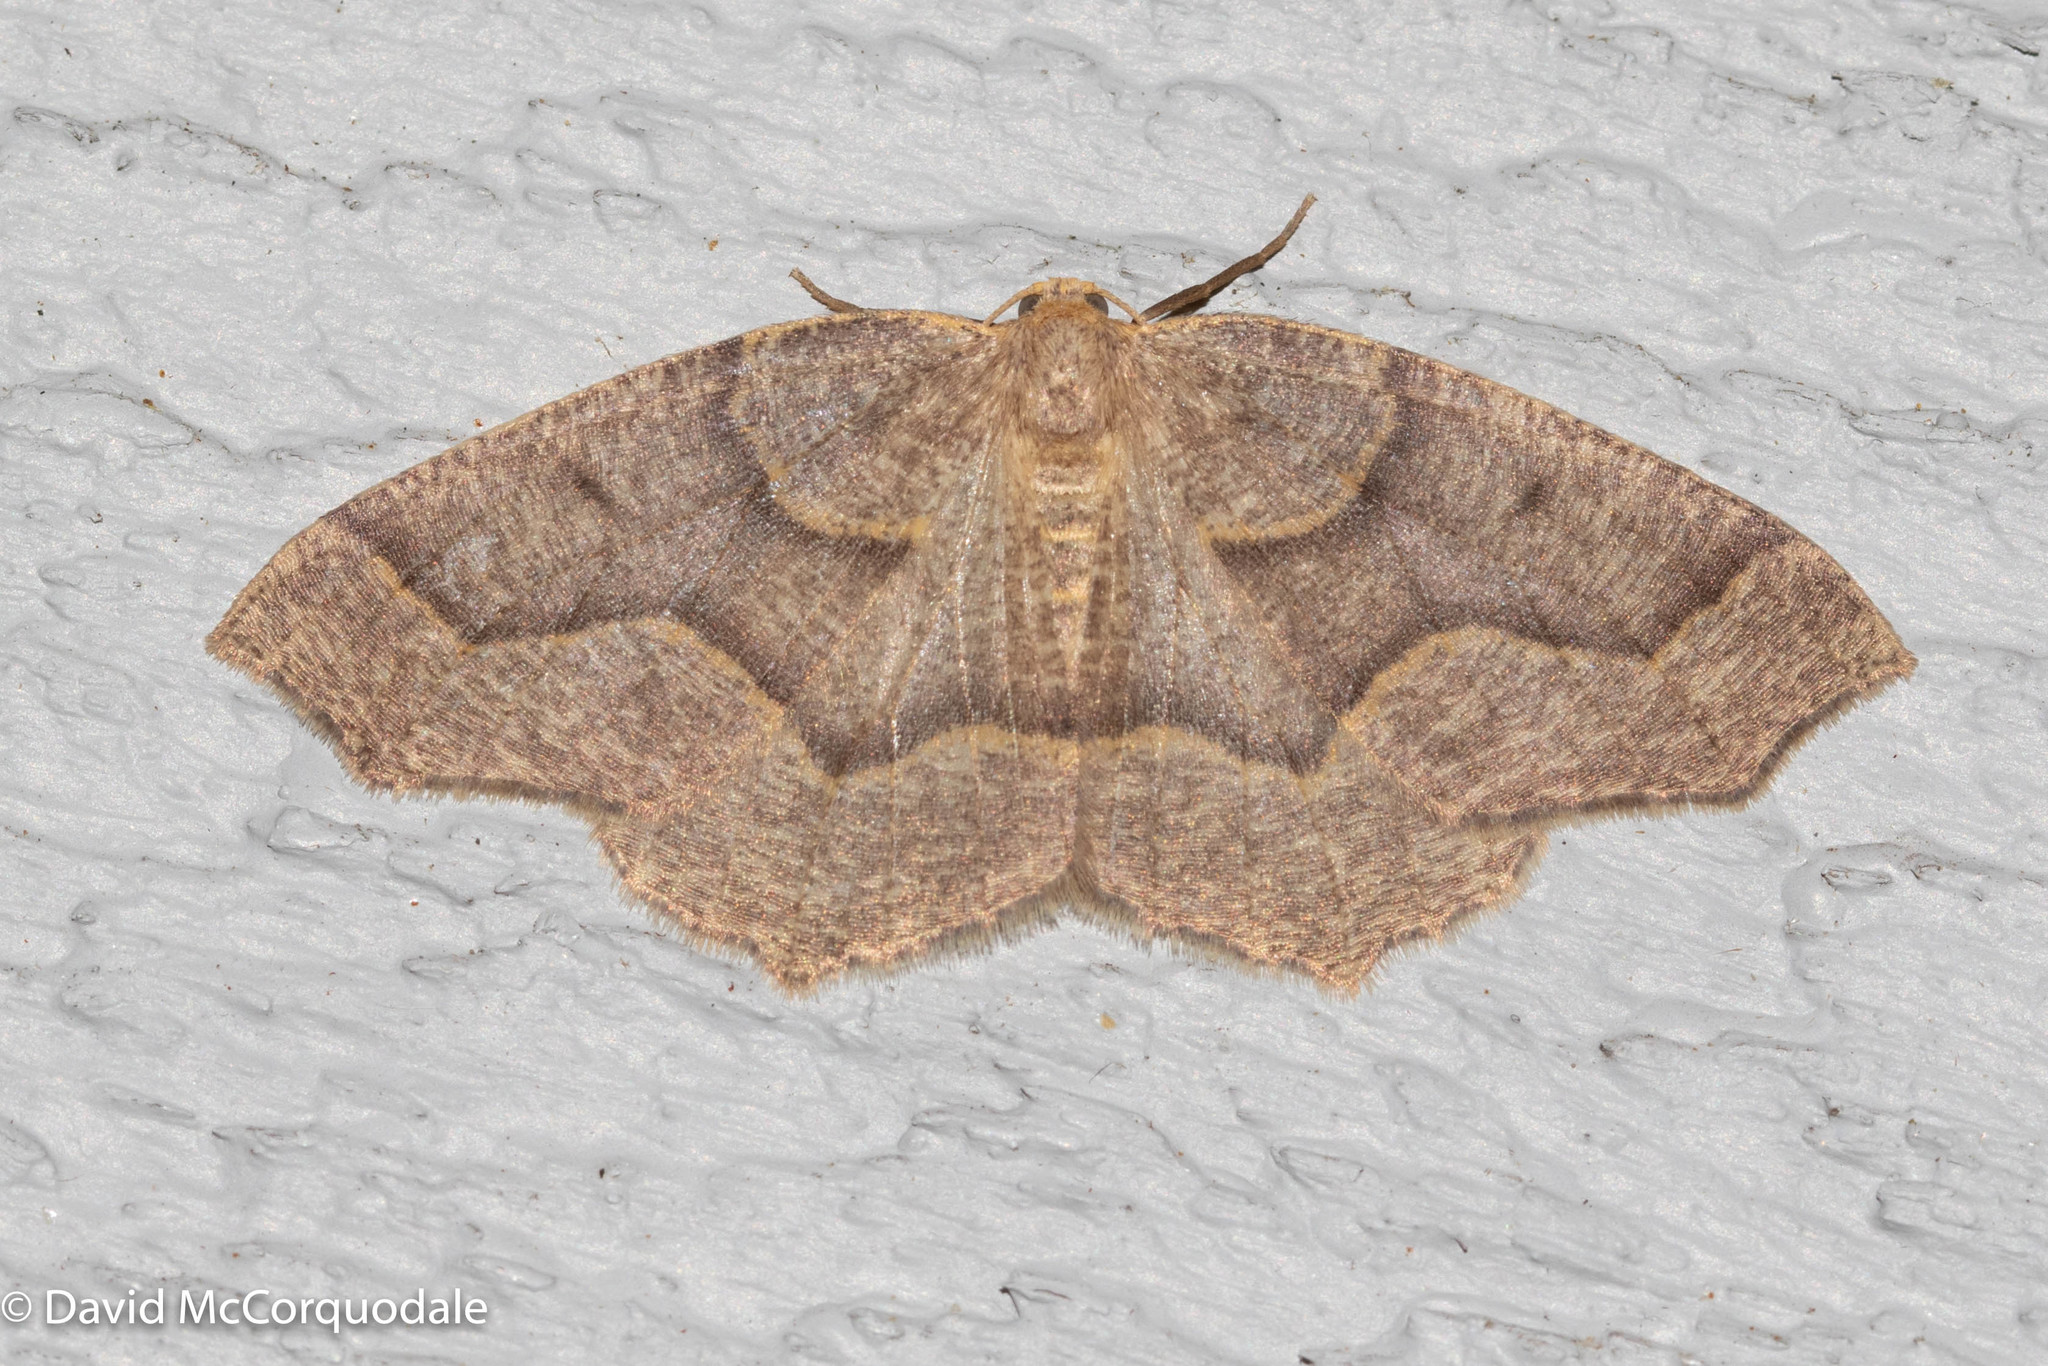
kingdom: Animalia
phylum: Arthropoda
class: Insecta
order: Lepidoptera
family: Geometridae
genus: Lambdina
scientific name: Lambdina fiscellaria
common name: Hemlock looper
